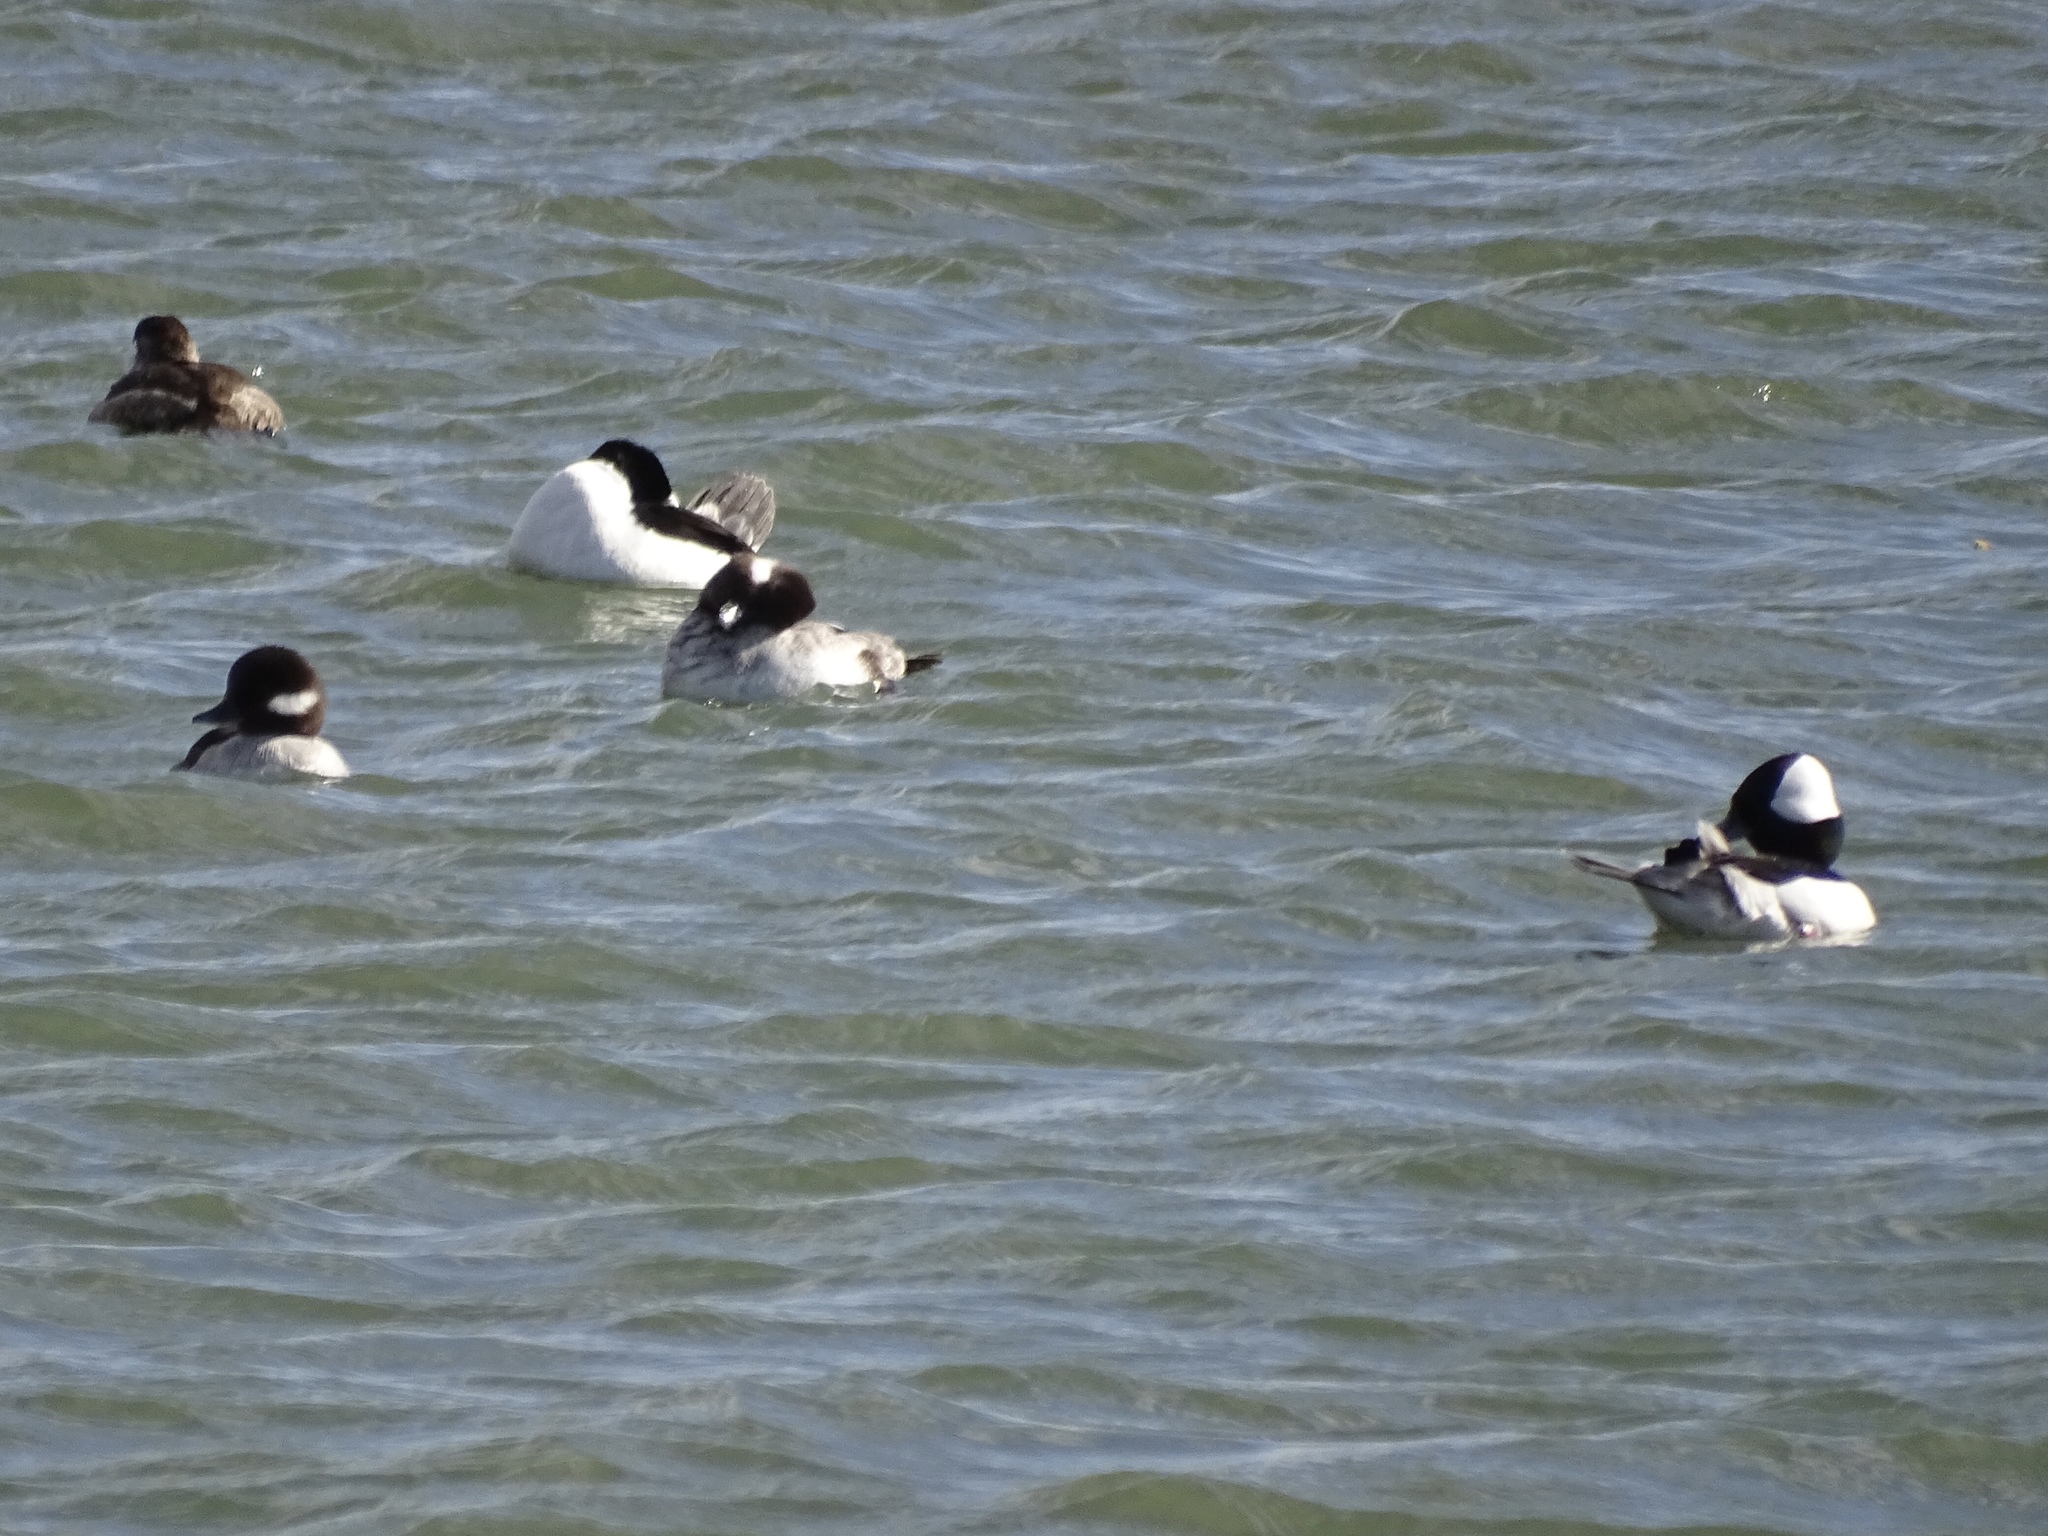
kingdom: Animalia
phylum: Chordata
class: Aves
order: Anseriformes
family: Anatidae
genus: Bucephala
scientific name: Bucephala albeola
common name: Bufflehead
